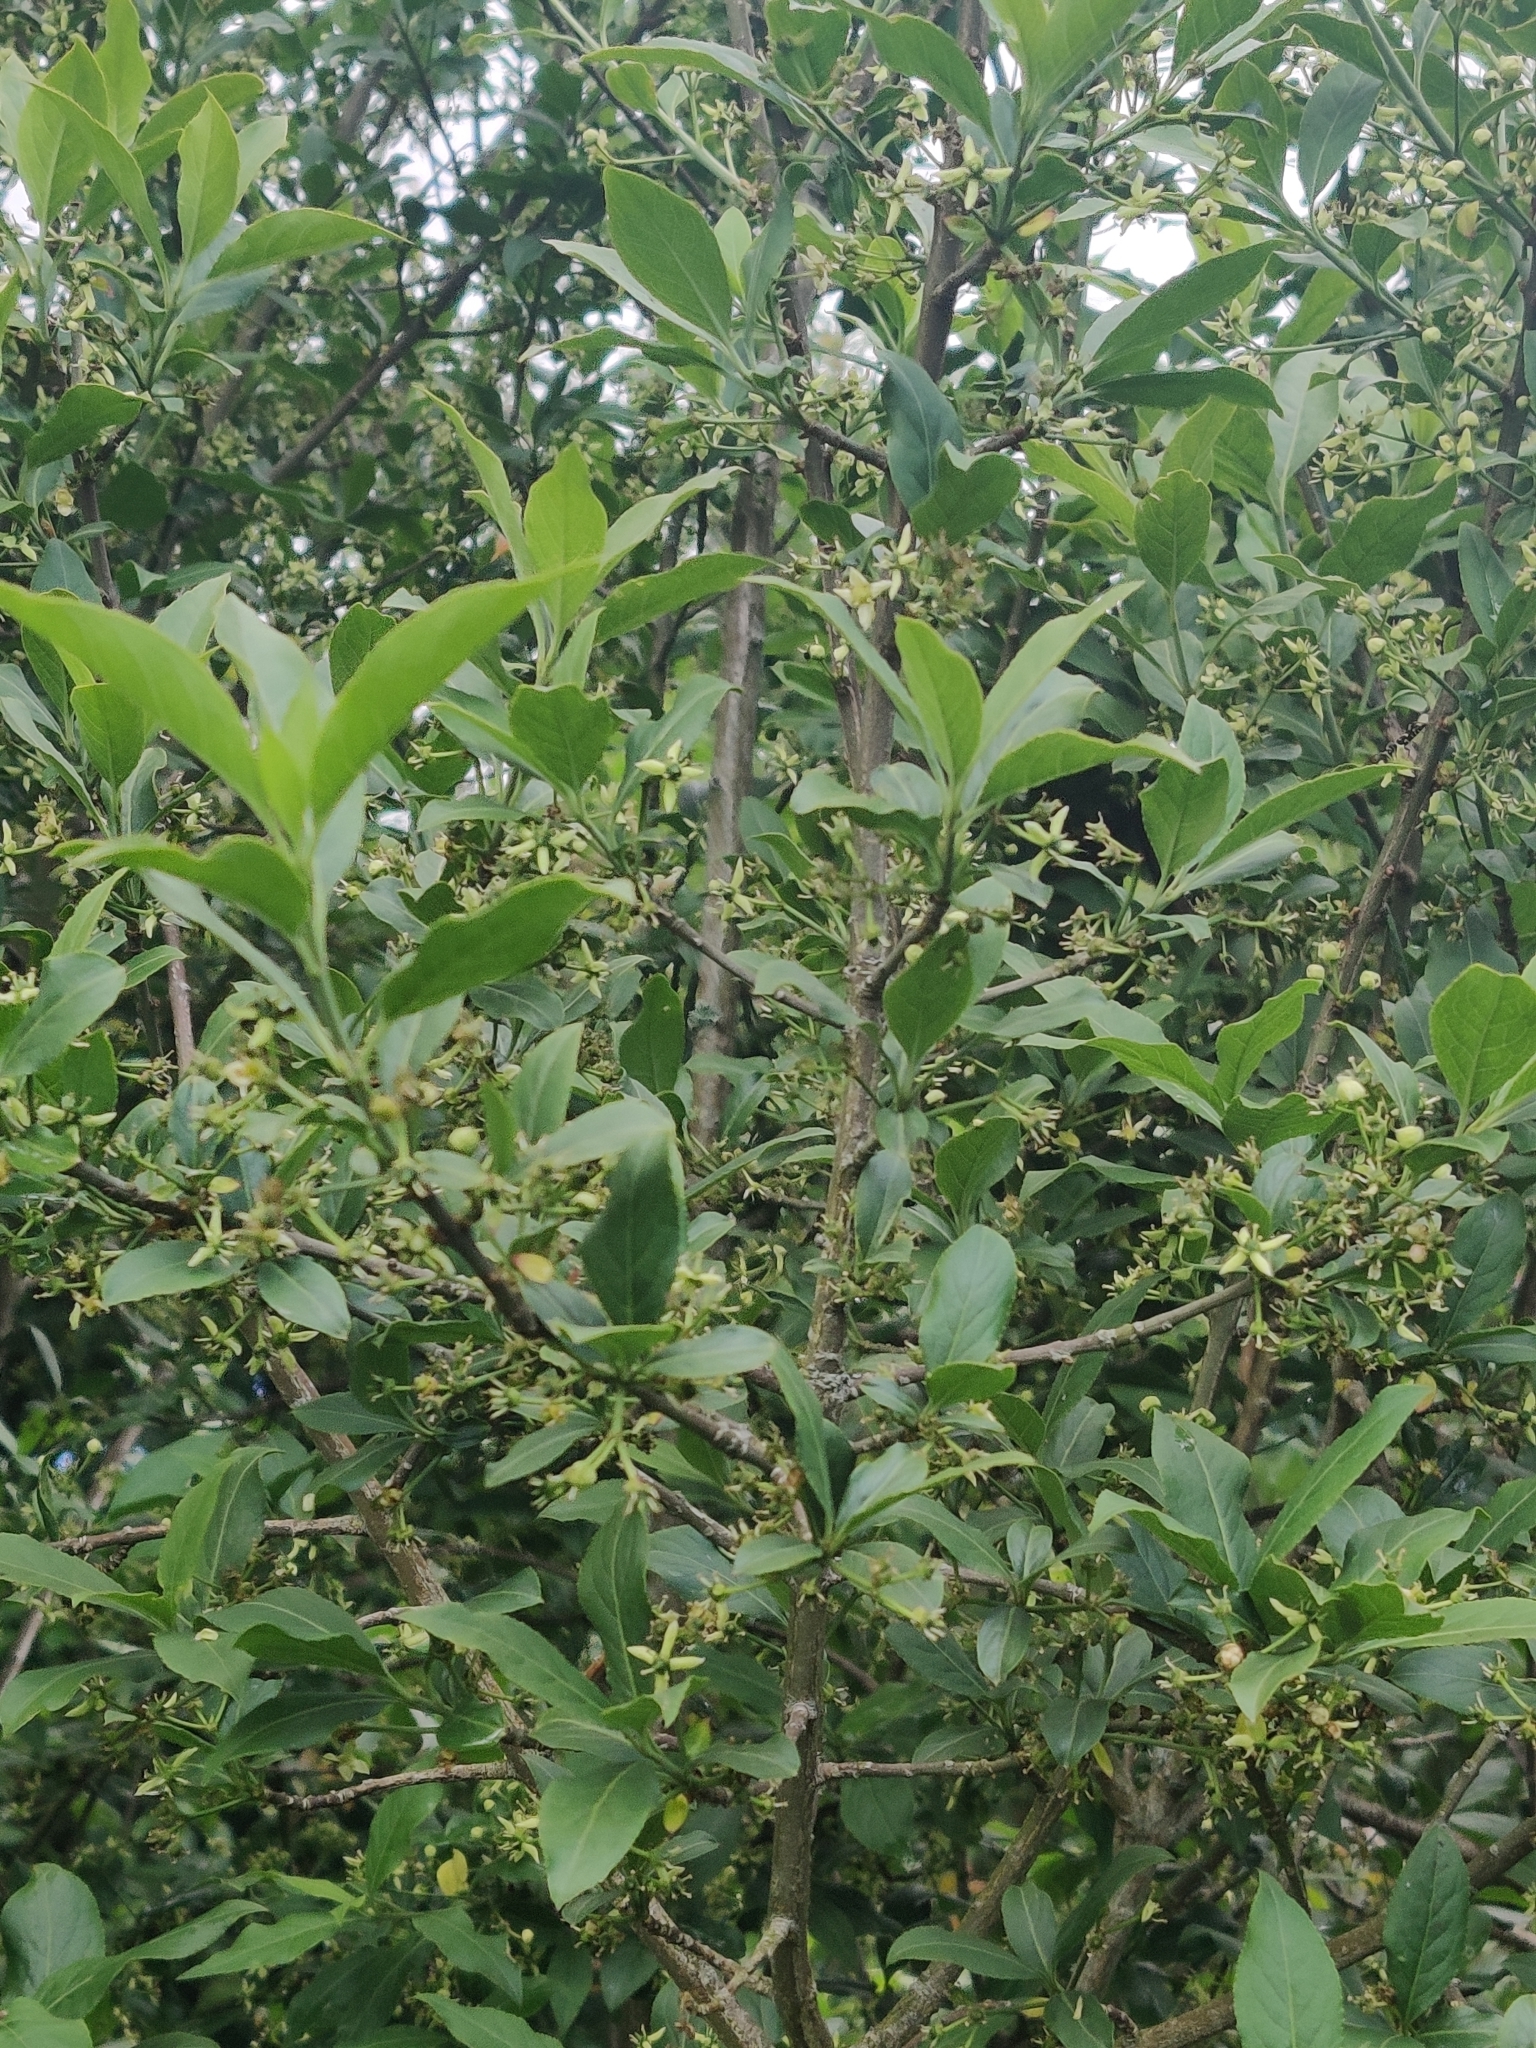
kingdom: Plantae
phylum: Tracheophyta
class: Magnoliopsida
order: Celastrales
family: Celastraceae
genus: Euonymus
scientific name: Euonymus europaeus
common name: Spindle
